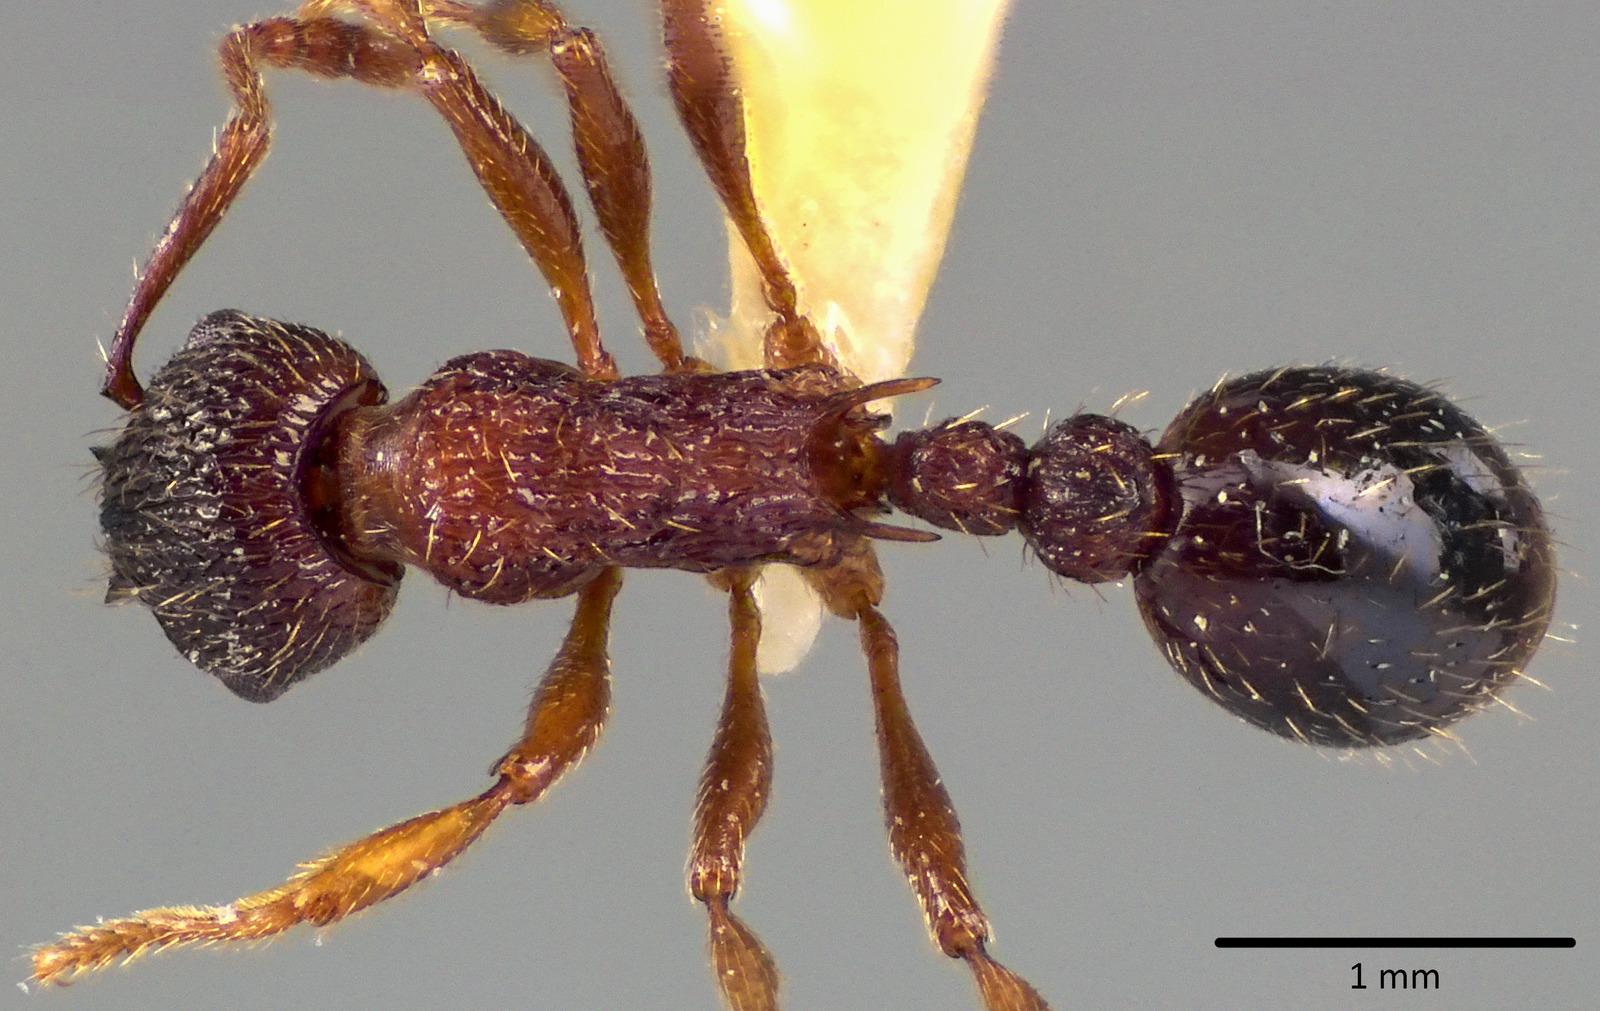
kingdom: Animalia
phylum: Arthropoda
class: Insecta
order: Hymenoptera
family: Formicidae
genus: Myrmica
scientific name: Myrmica spatulata
